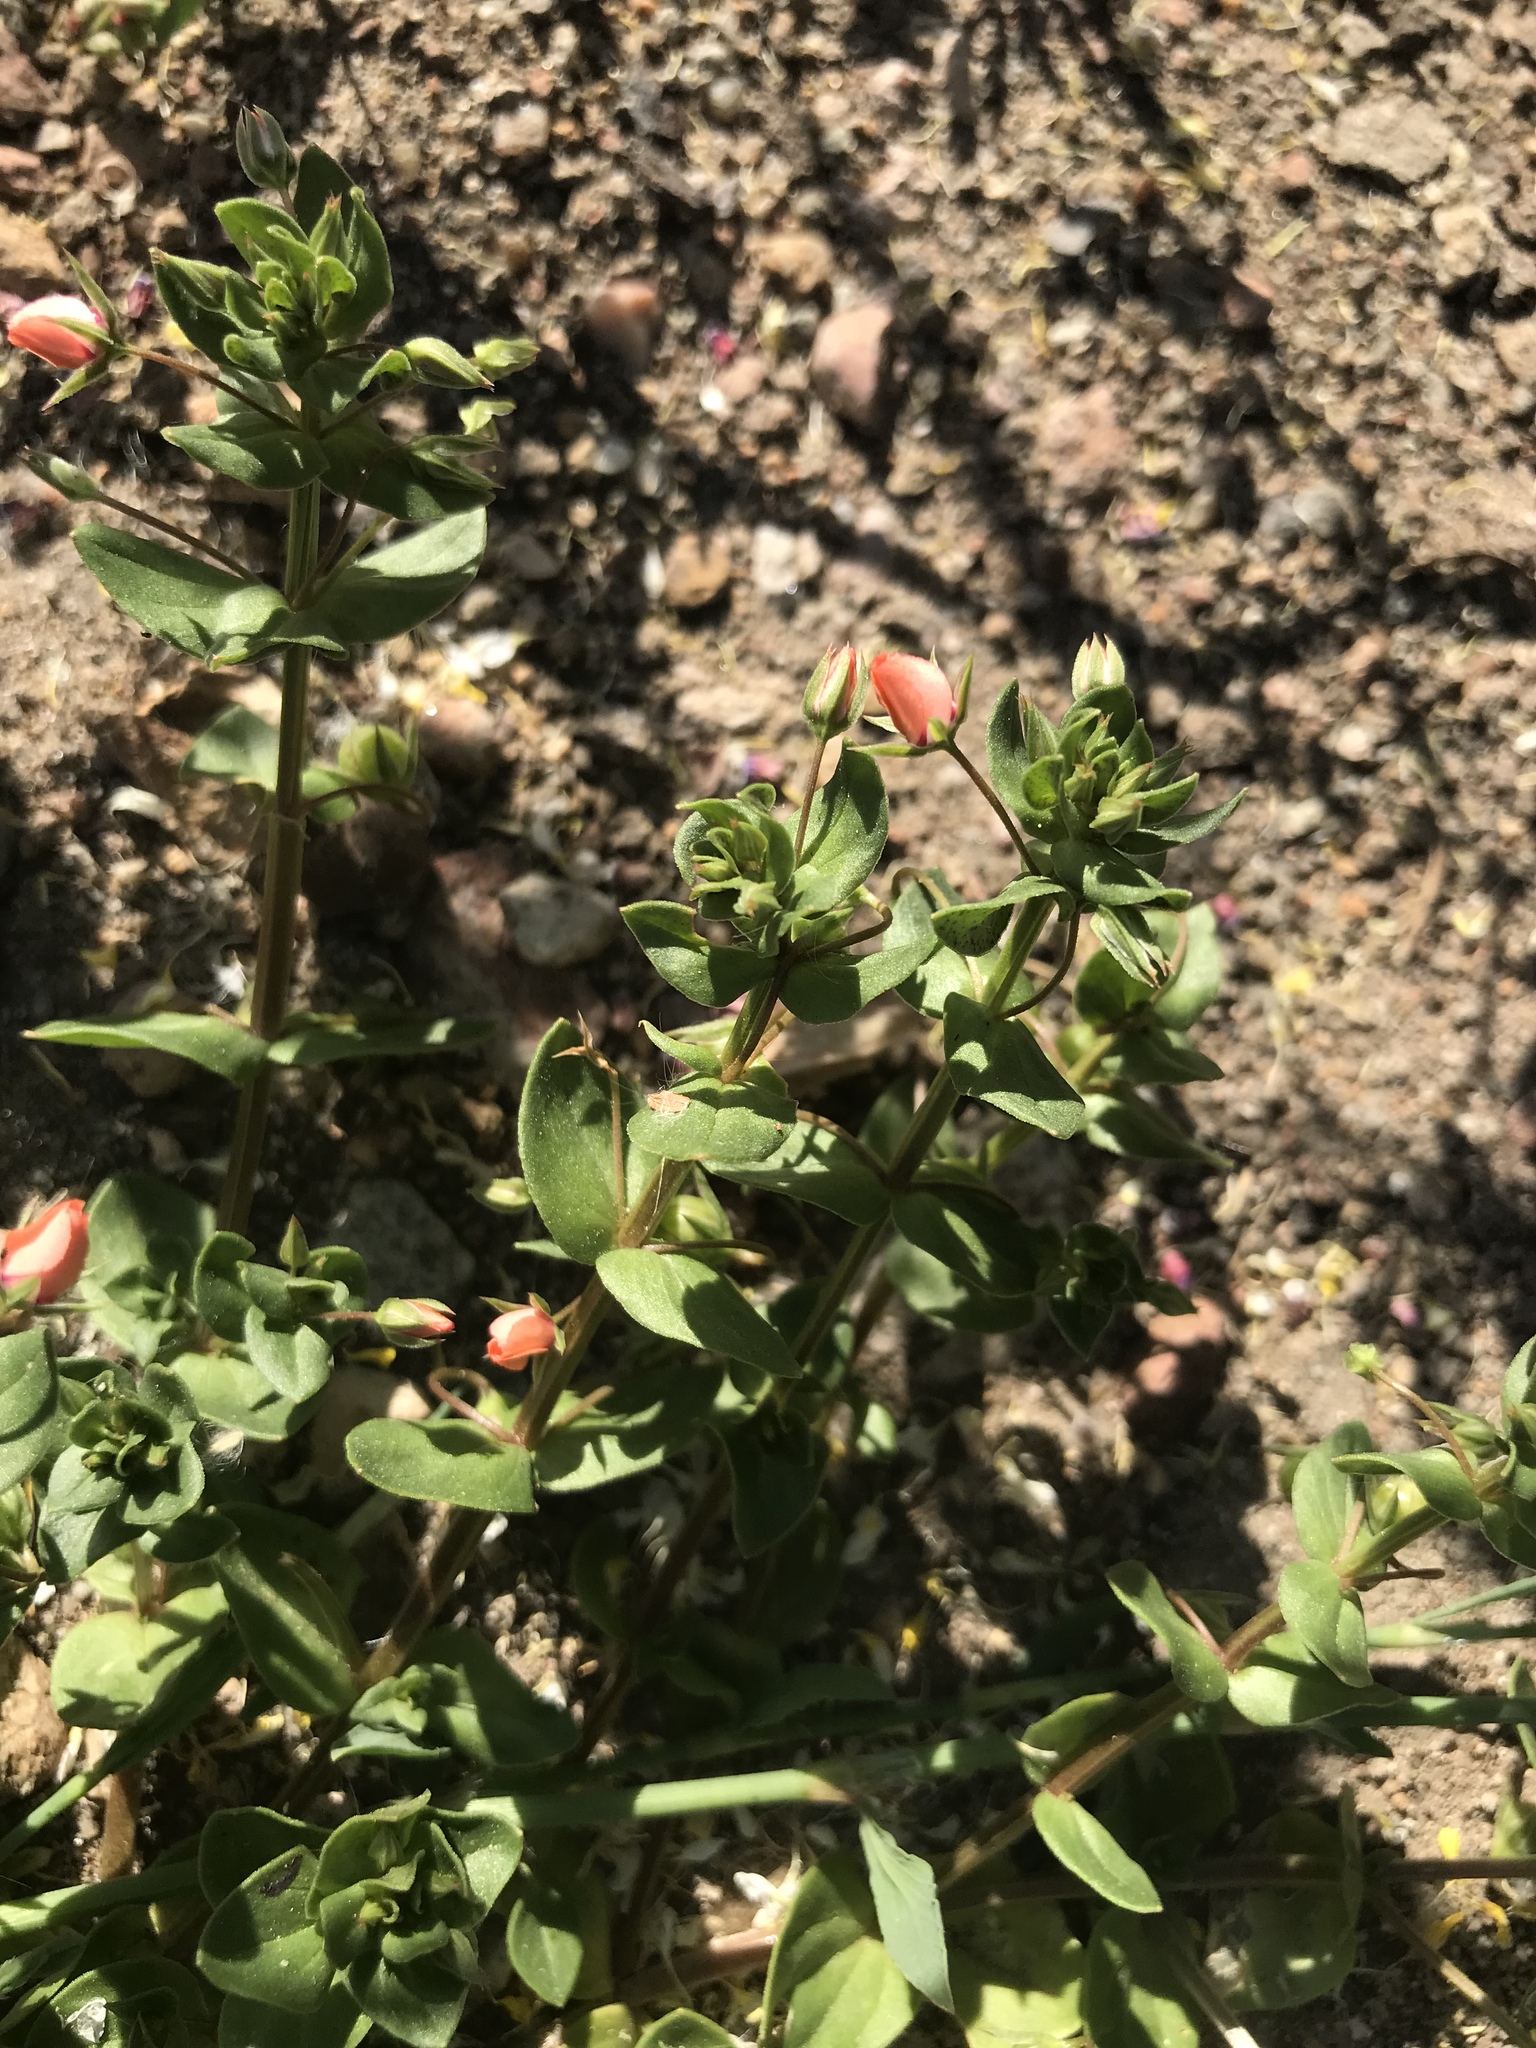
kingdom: Plantae
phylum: Tracheophyta
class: Magnoliopsida
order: Ericales
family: Primulaceae
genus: Lysimachia
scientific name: Lysimachia arvensis
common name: Scarlet pimpernel
